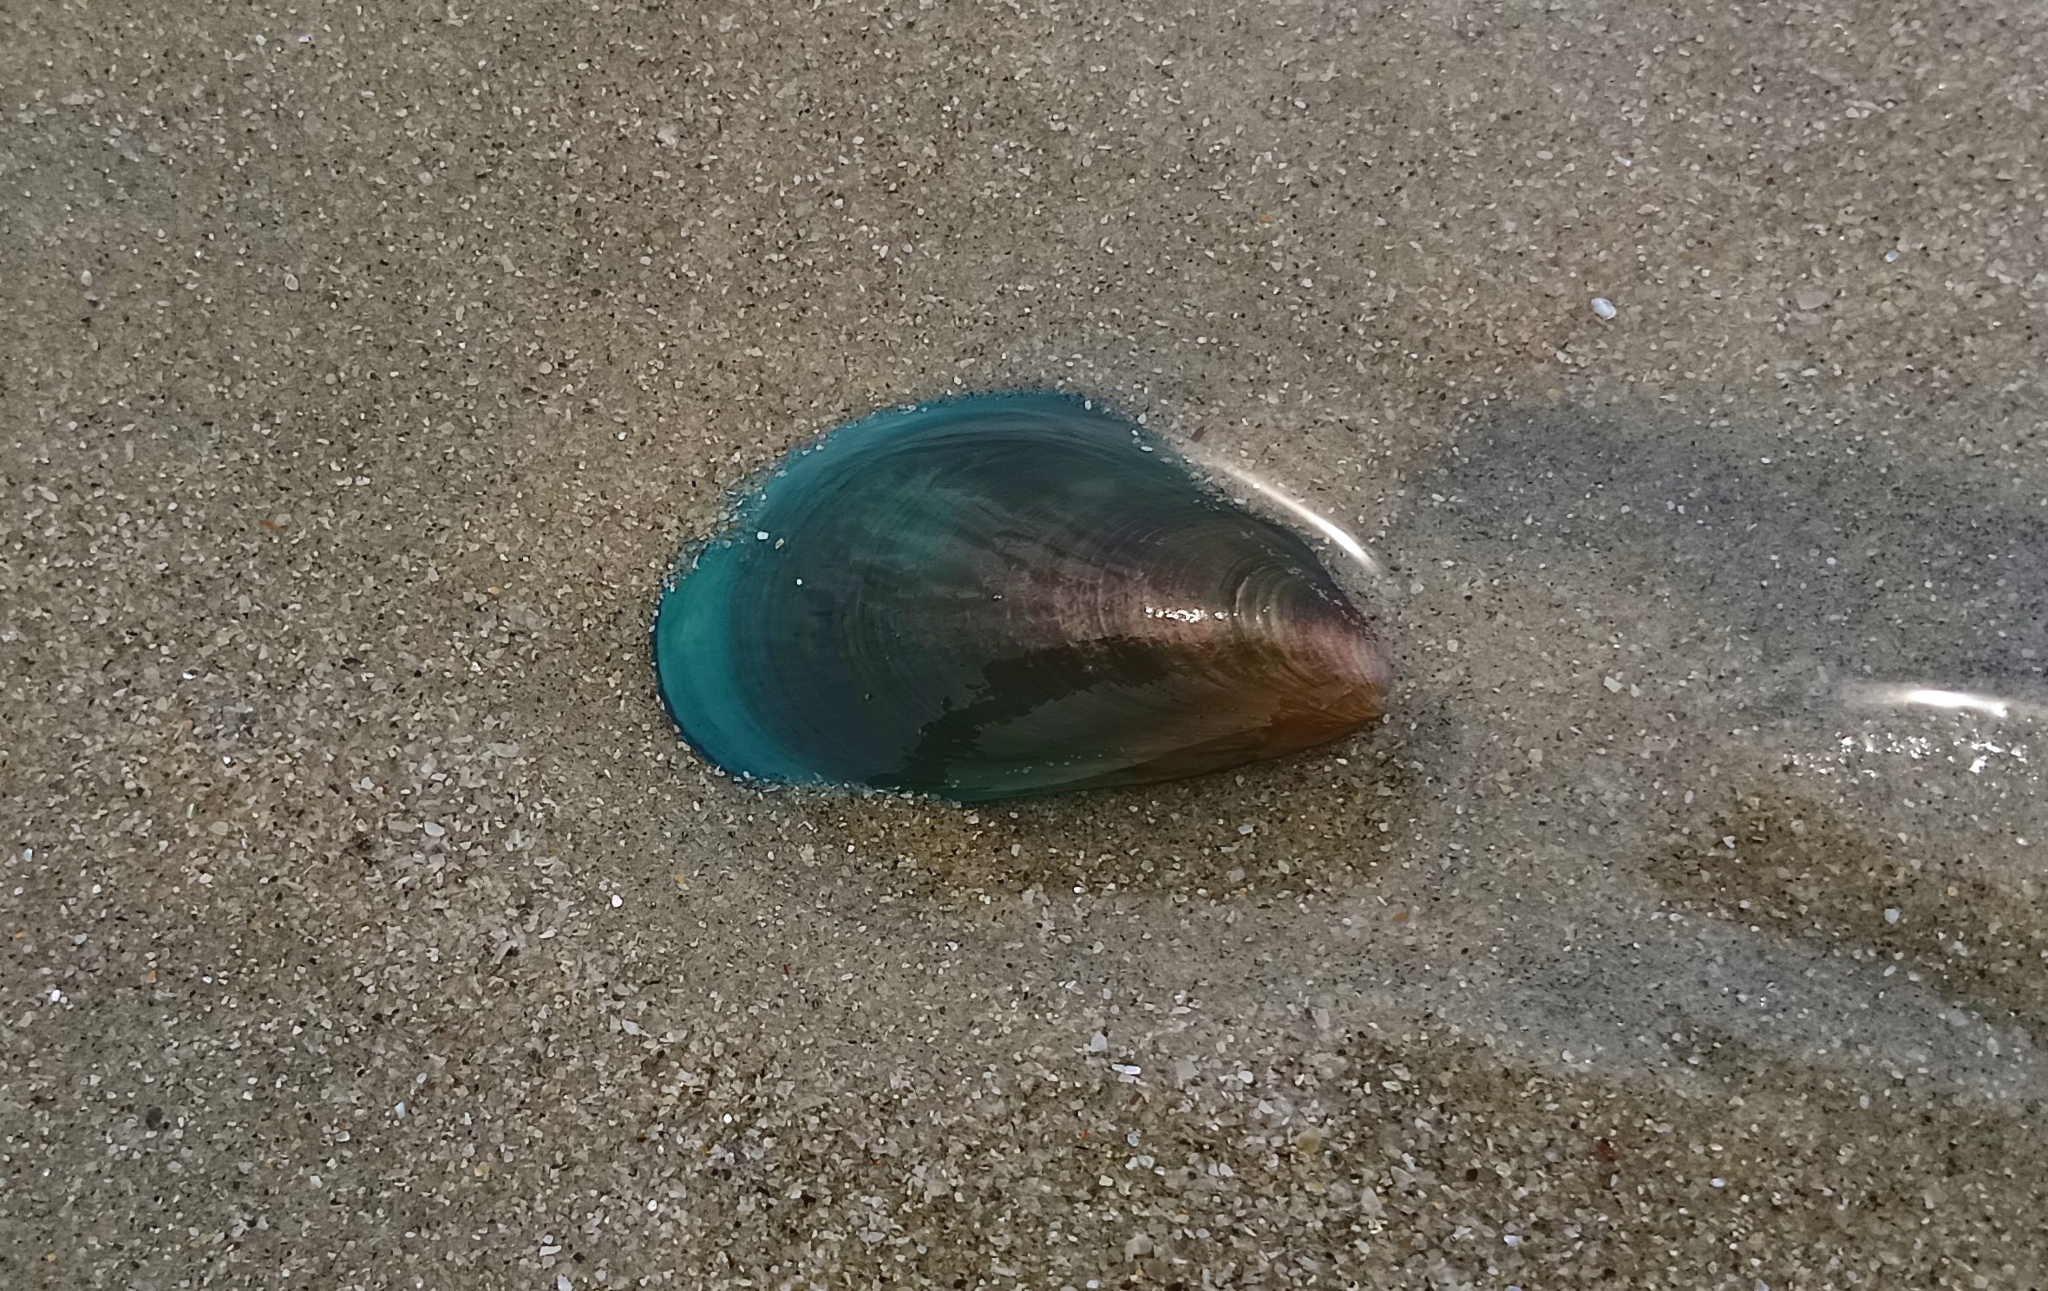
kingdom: Animalia
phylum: Mollusca
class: Bivalvia
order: Mytilida
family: Mytilidae
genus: Perna
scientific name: Perna viridis
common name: Green mussel
